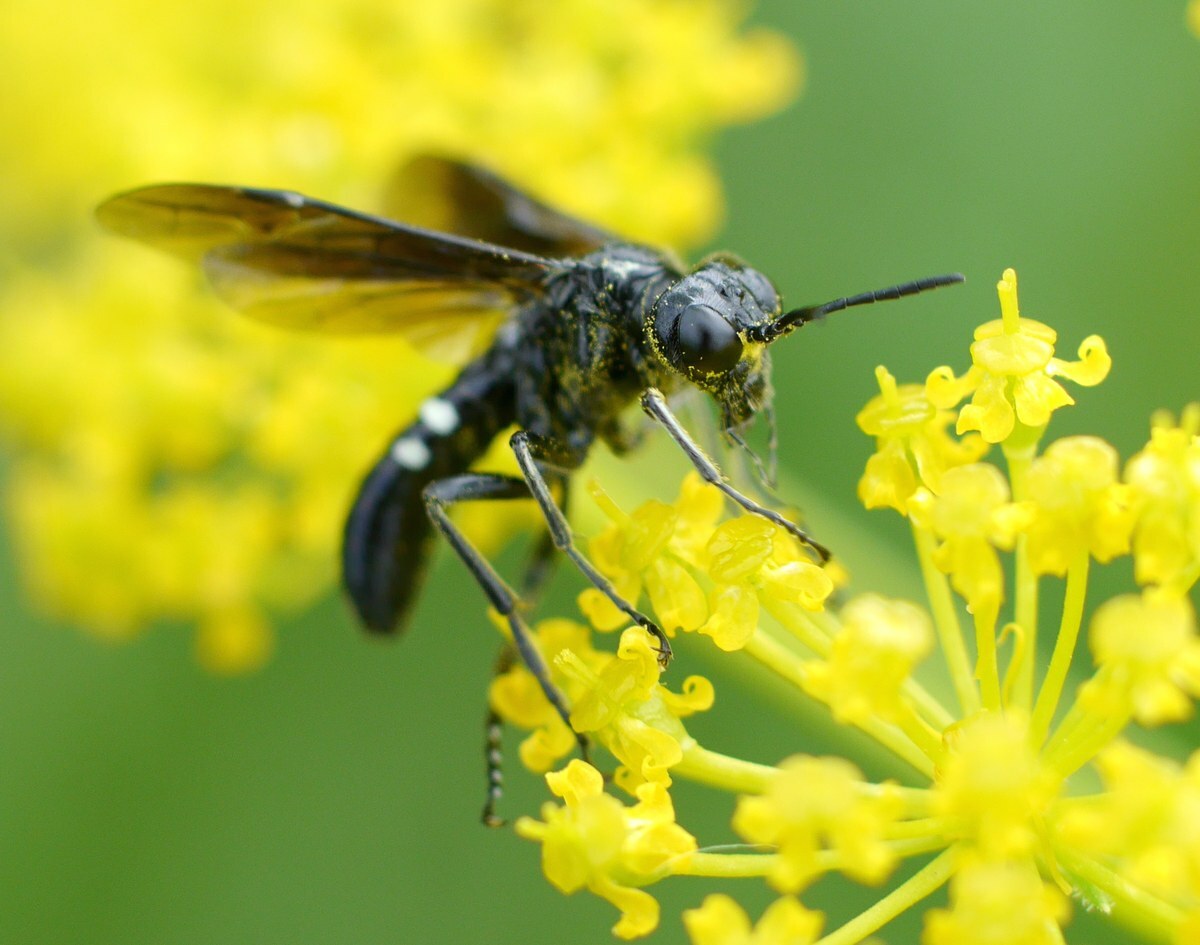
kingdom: Animalia
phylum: Arthropoda
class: Insecta
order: Hymenoptera
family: Tenthredinidae
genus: Tenthredo
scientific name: Tenthredo costata
